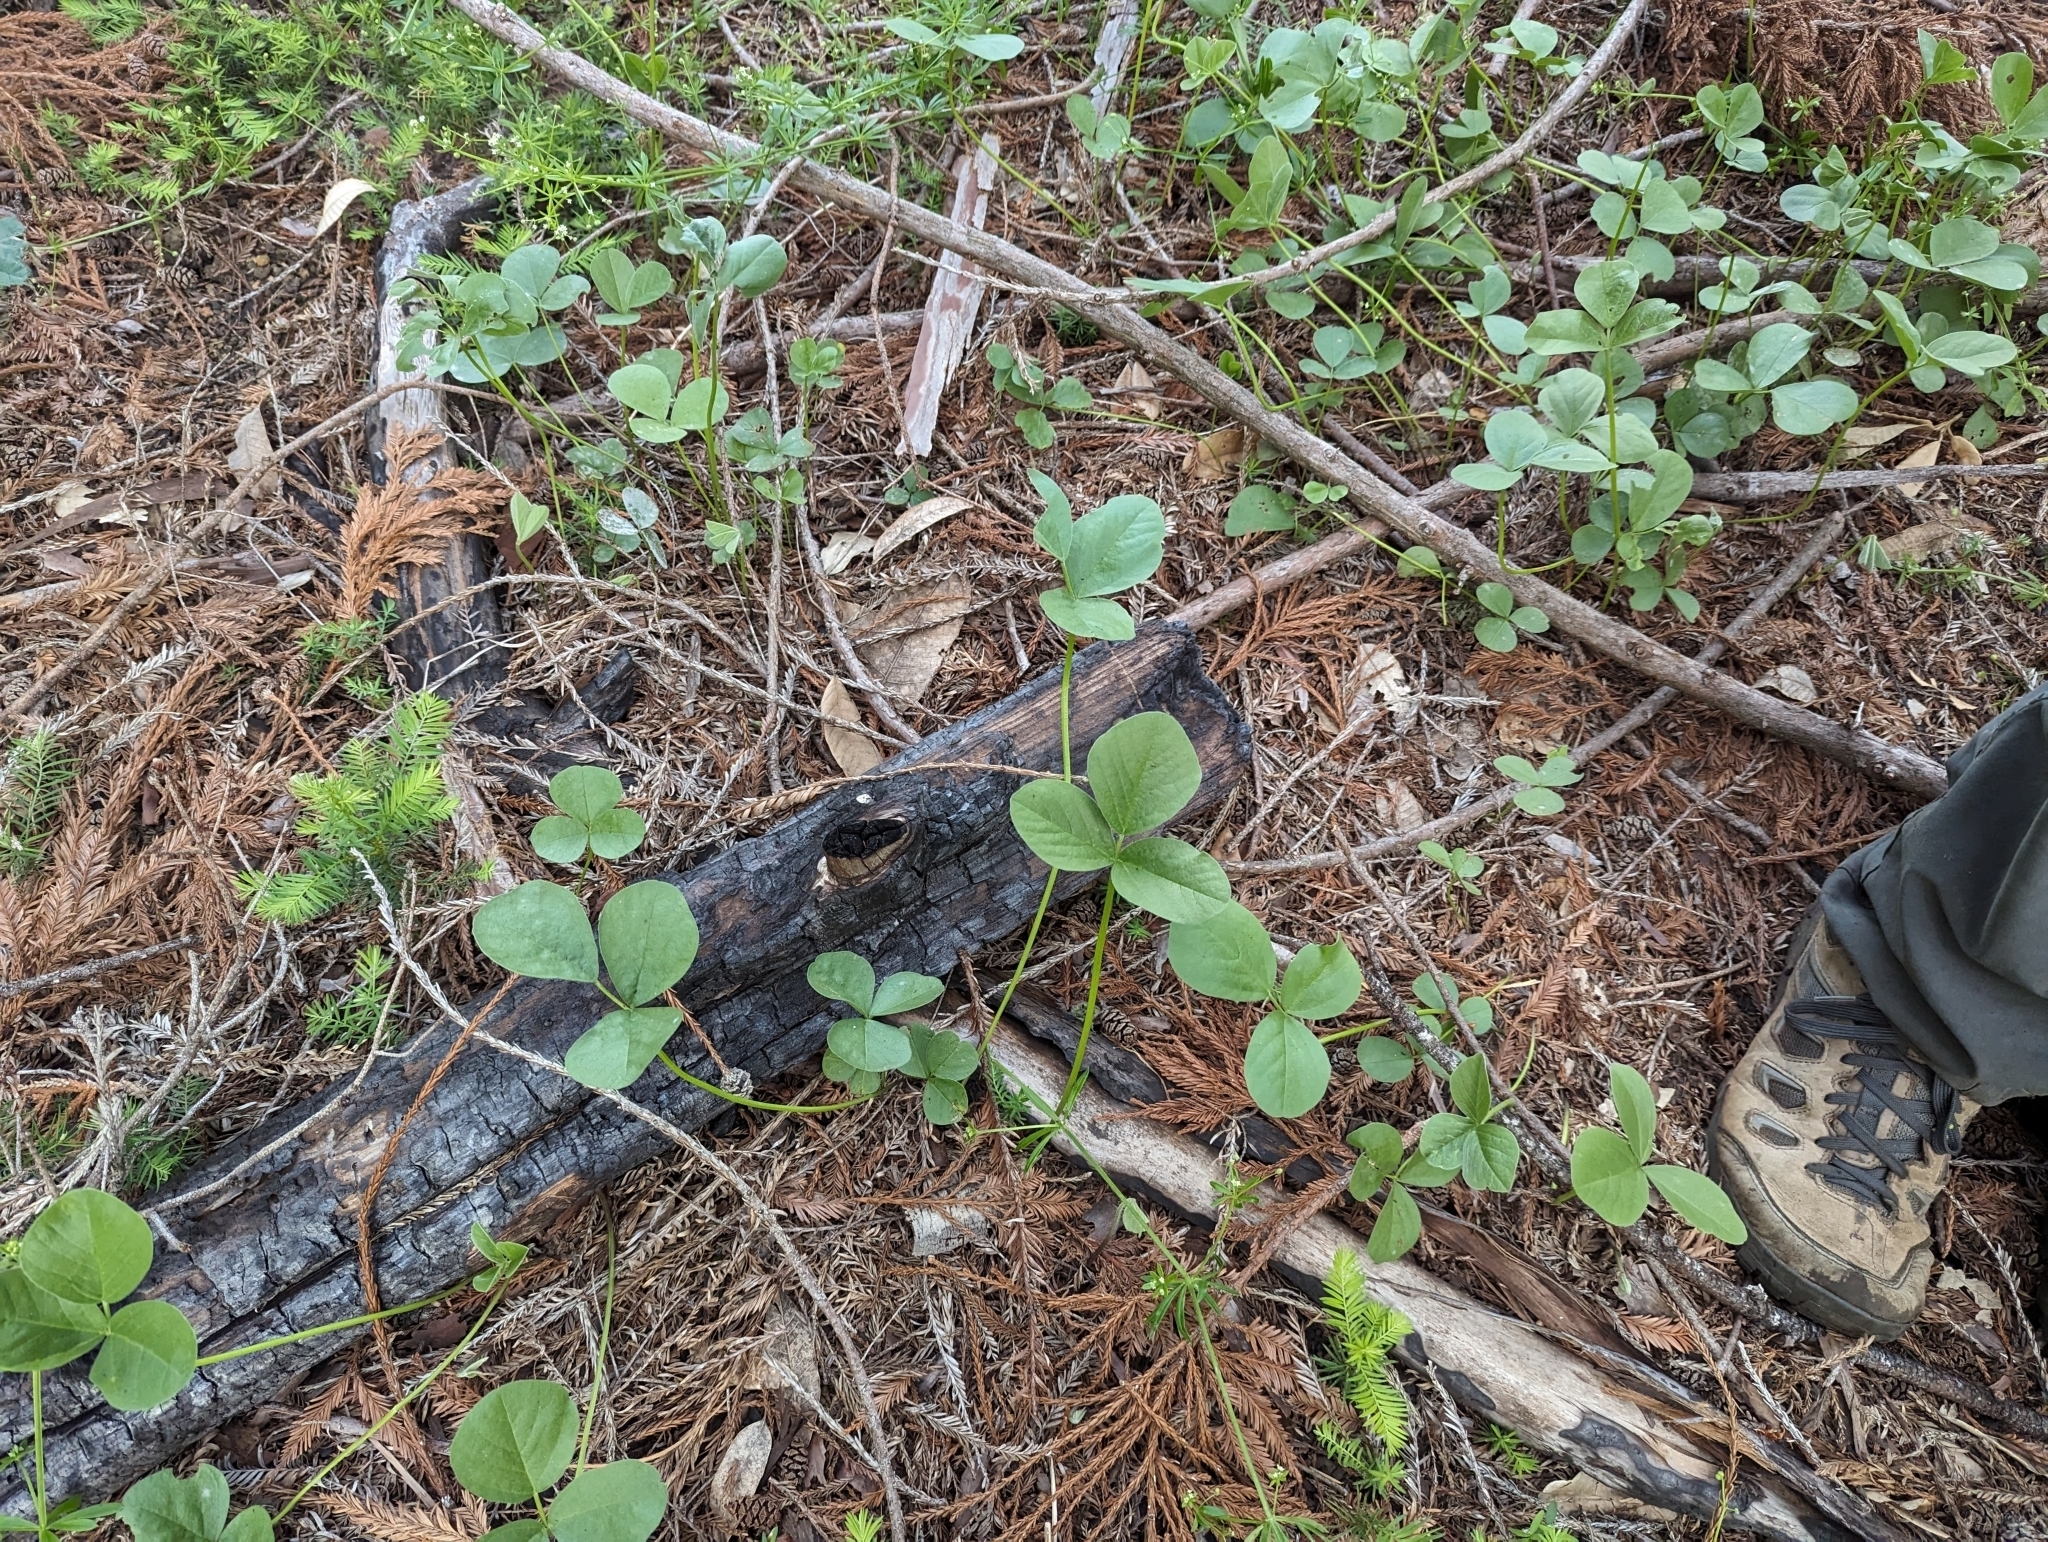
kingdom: Plantae
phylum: Tracheophyta
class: Magnoliopsida
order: Fabales
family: Fabaceae
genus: Hoita
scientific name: Hoita orbicularis
